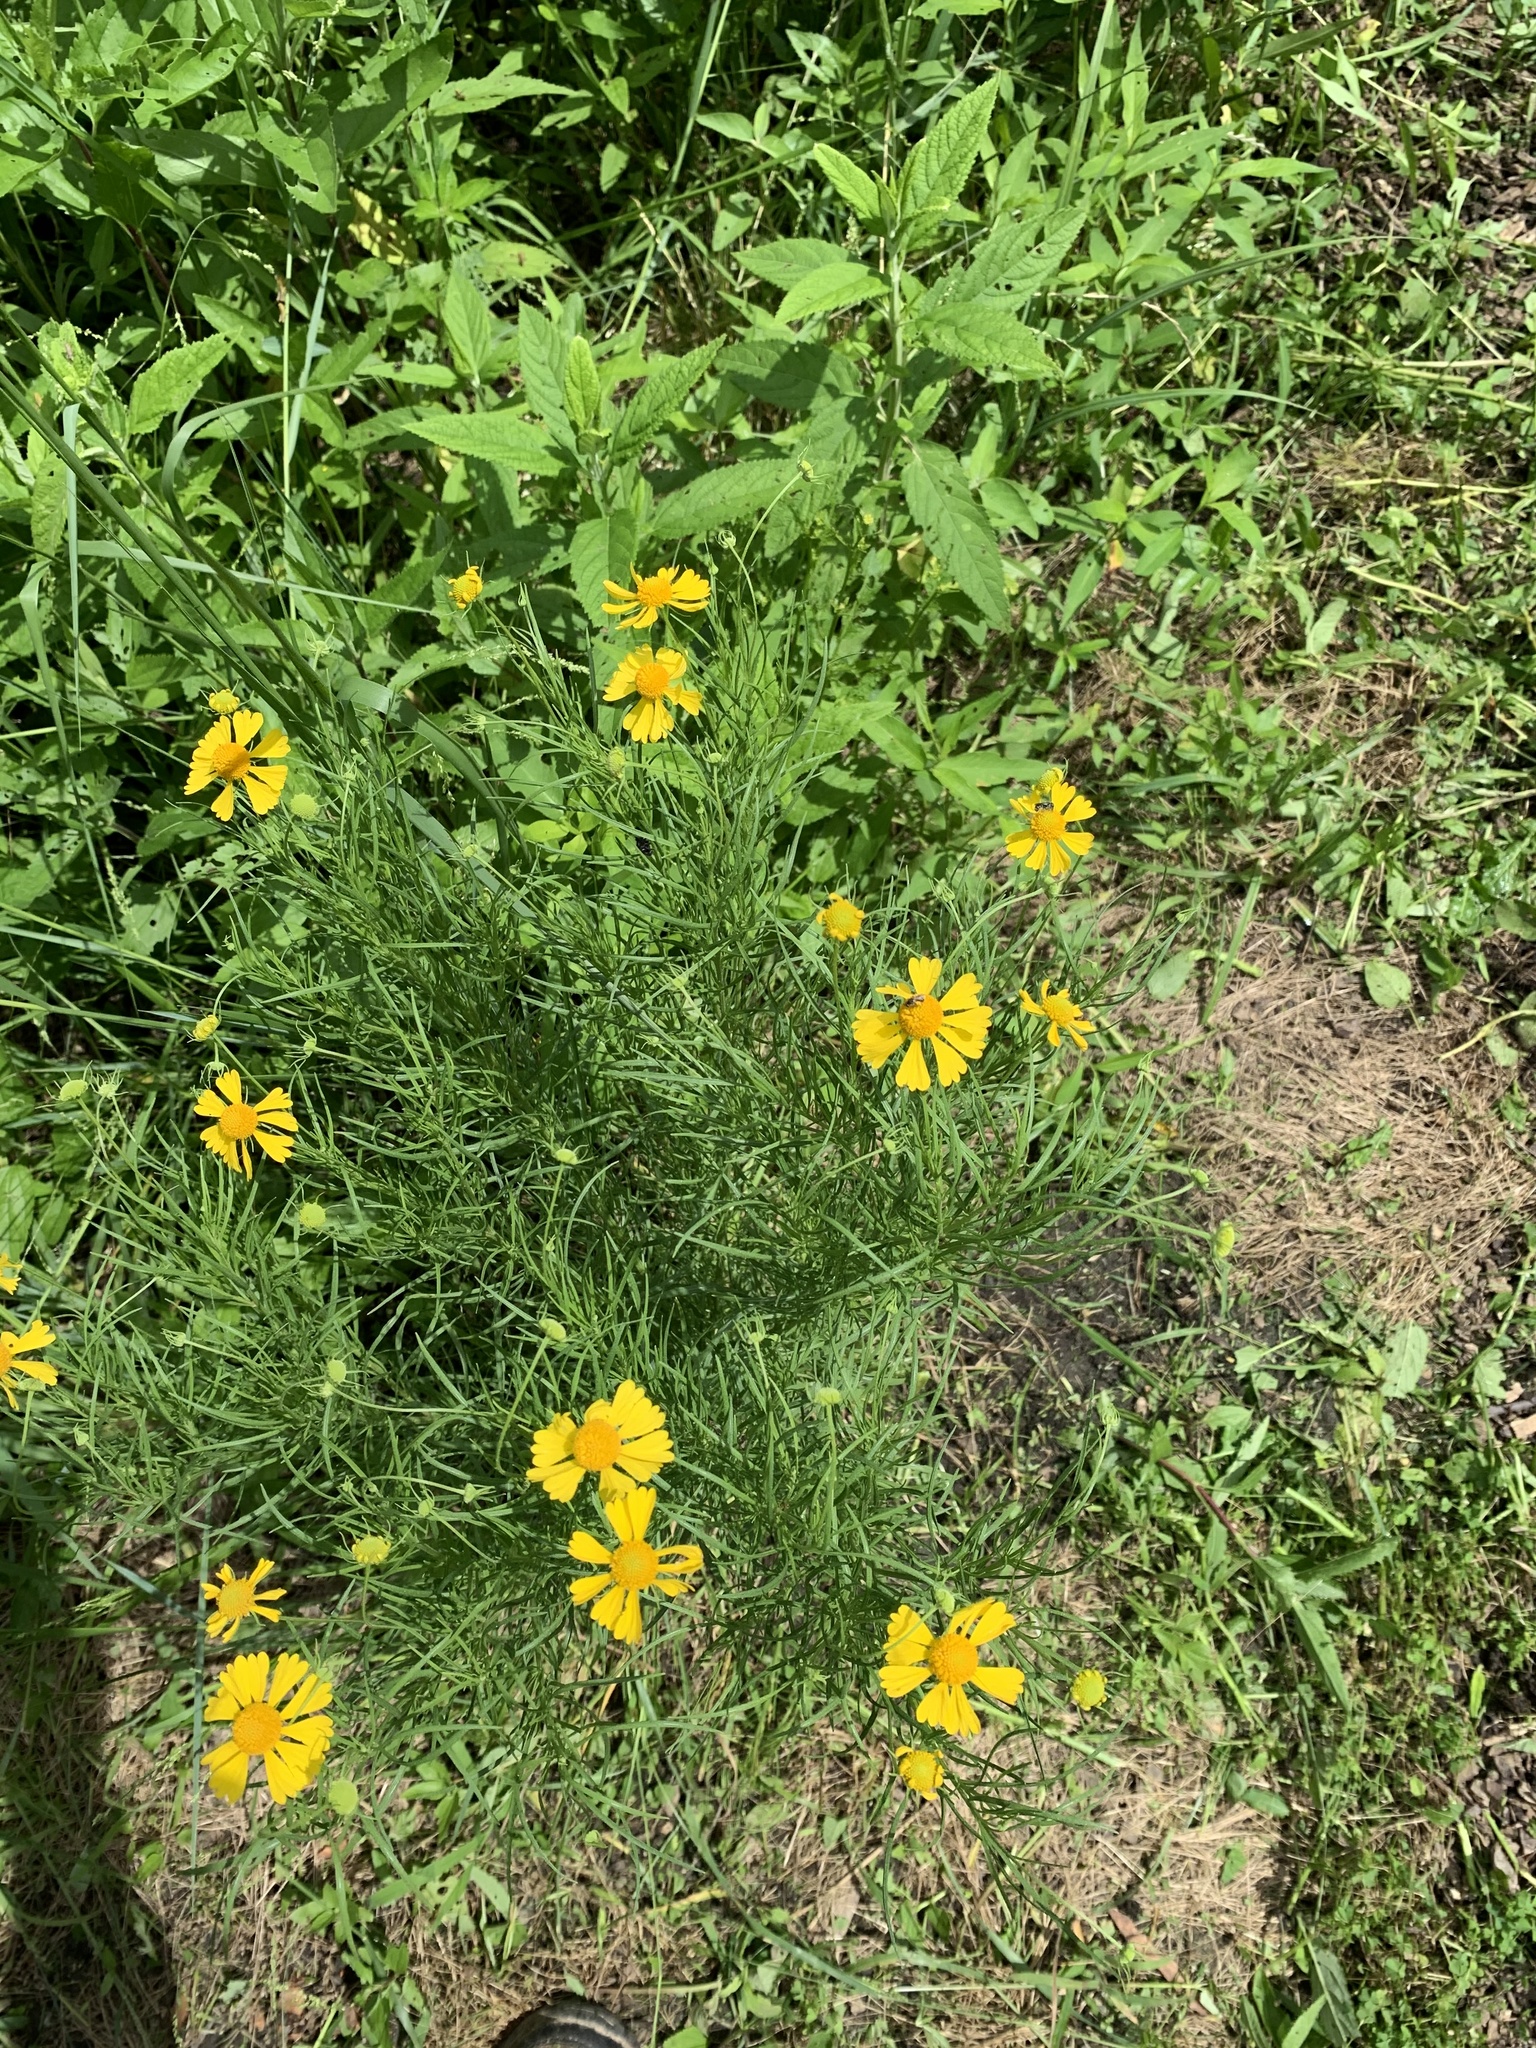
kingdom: Plantae
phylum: Tracheophyta
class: Magnoliopsida
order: Asterales
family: Asteraceae
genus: Helenium
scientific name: Helenium amarum
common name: Bitter sneezeweed
